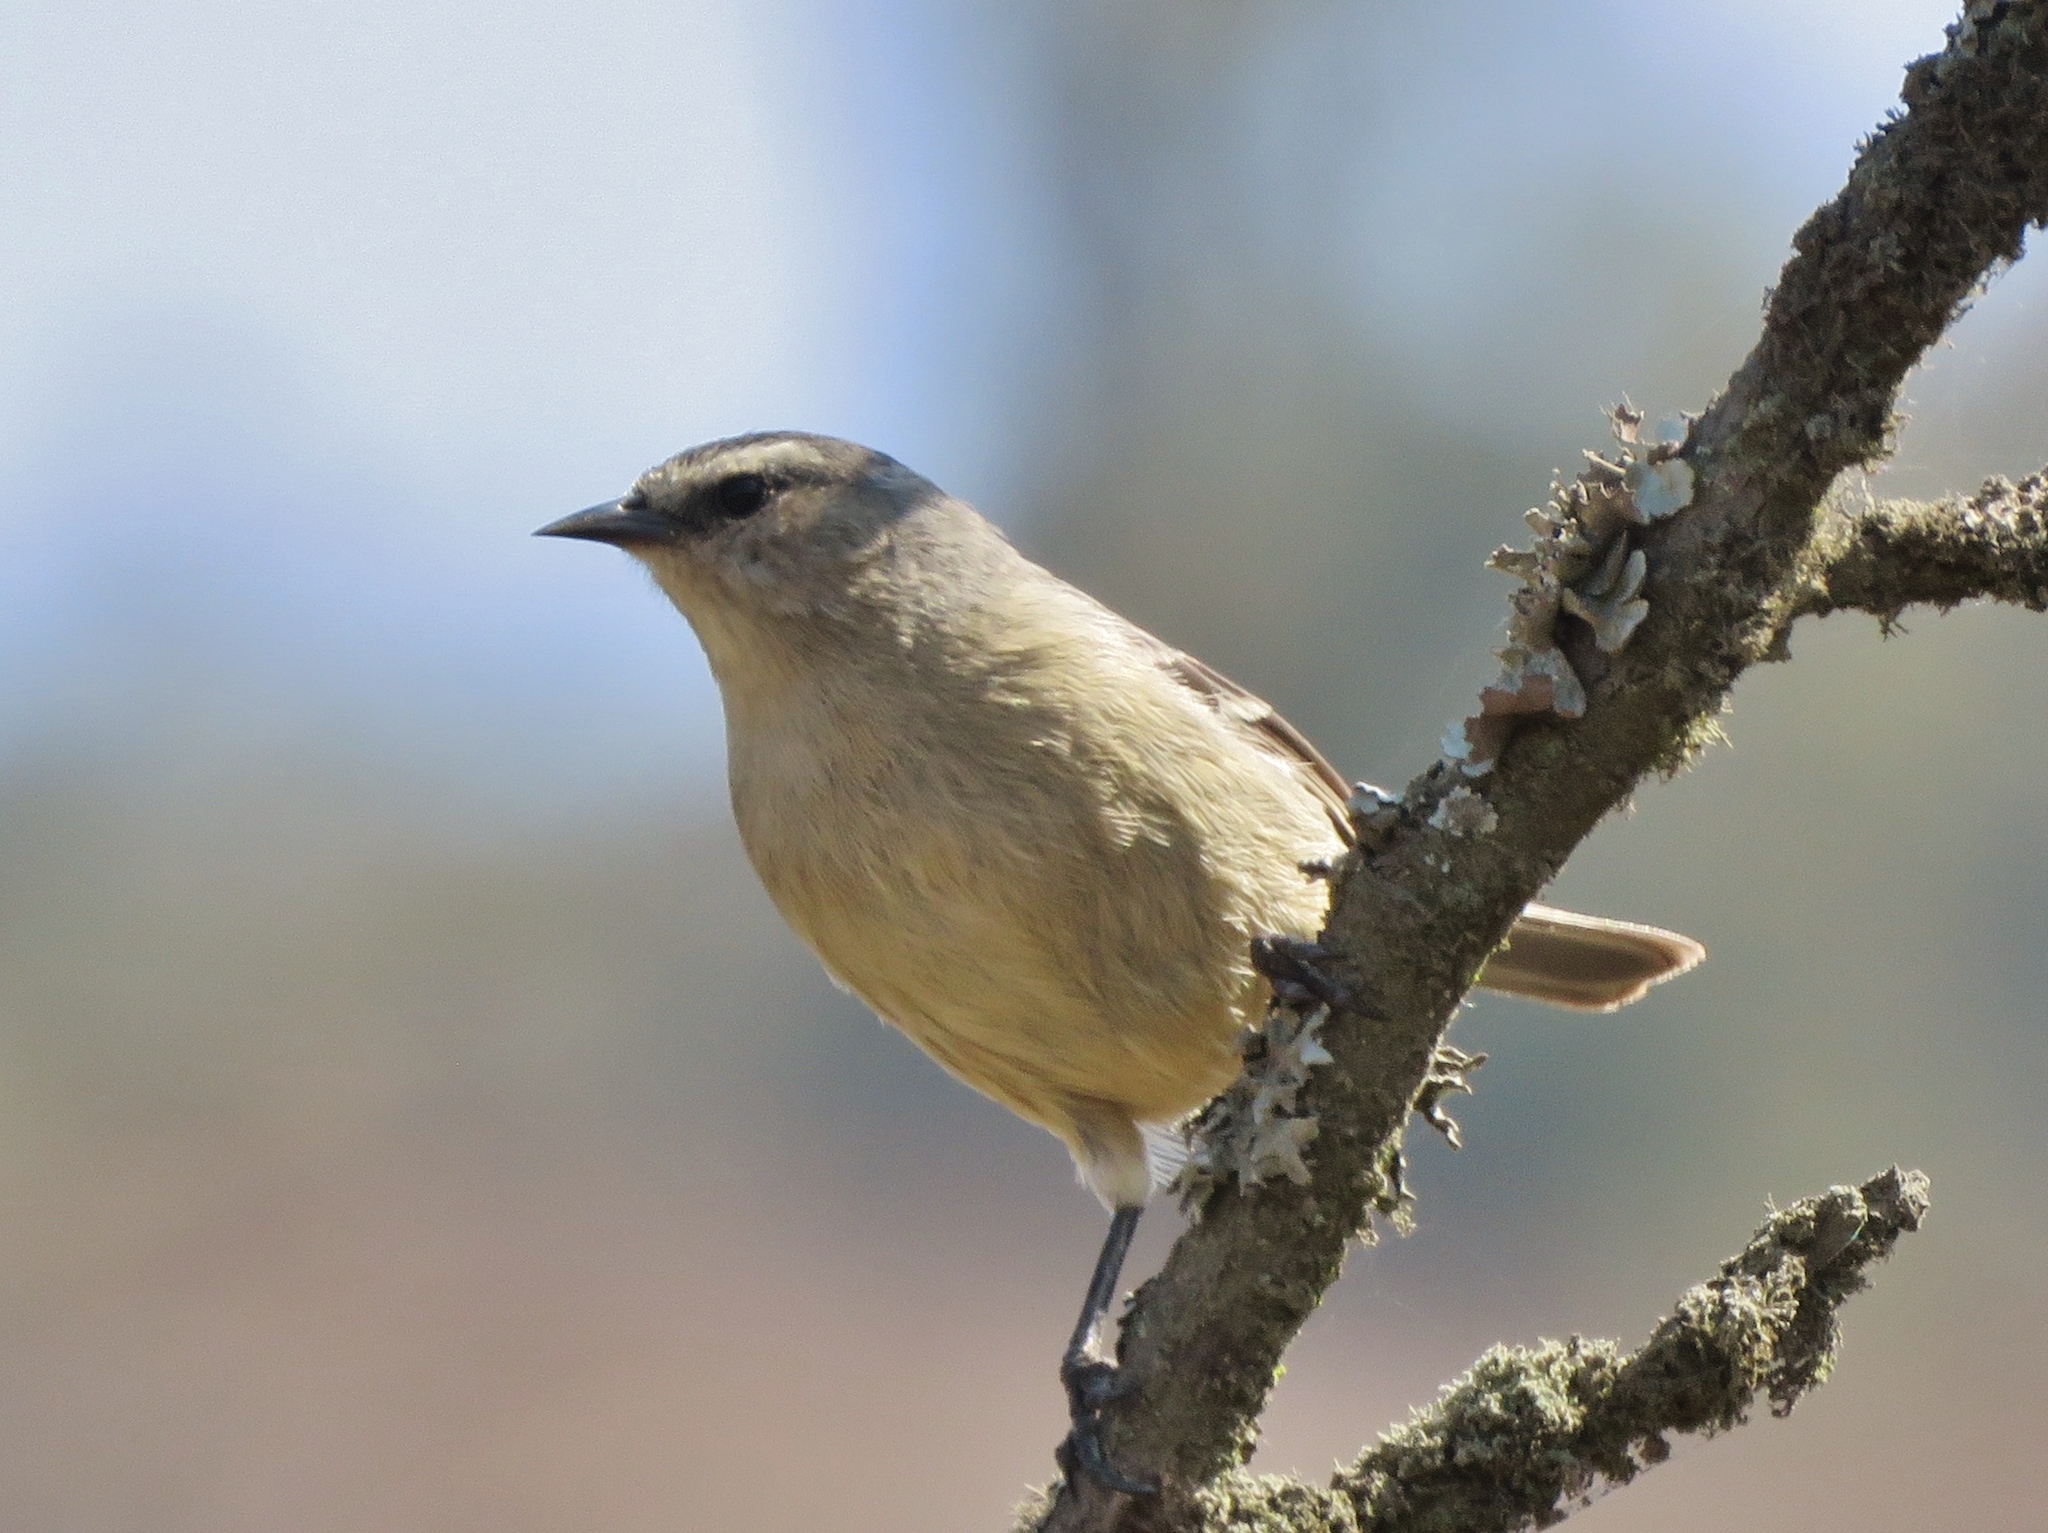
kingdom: Animalia
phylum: Chordata
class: Aves
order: Passeriformes
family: Thraupidae
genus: Conirostrum
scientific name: Conirostrum cinereum
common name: Cinereous conebill
